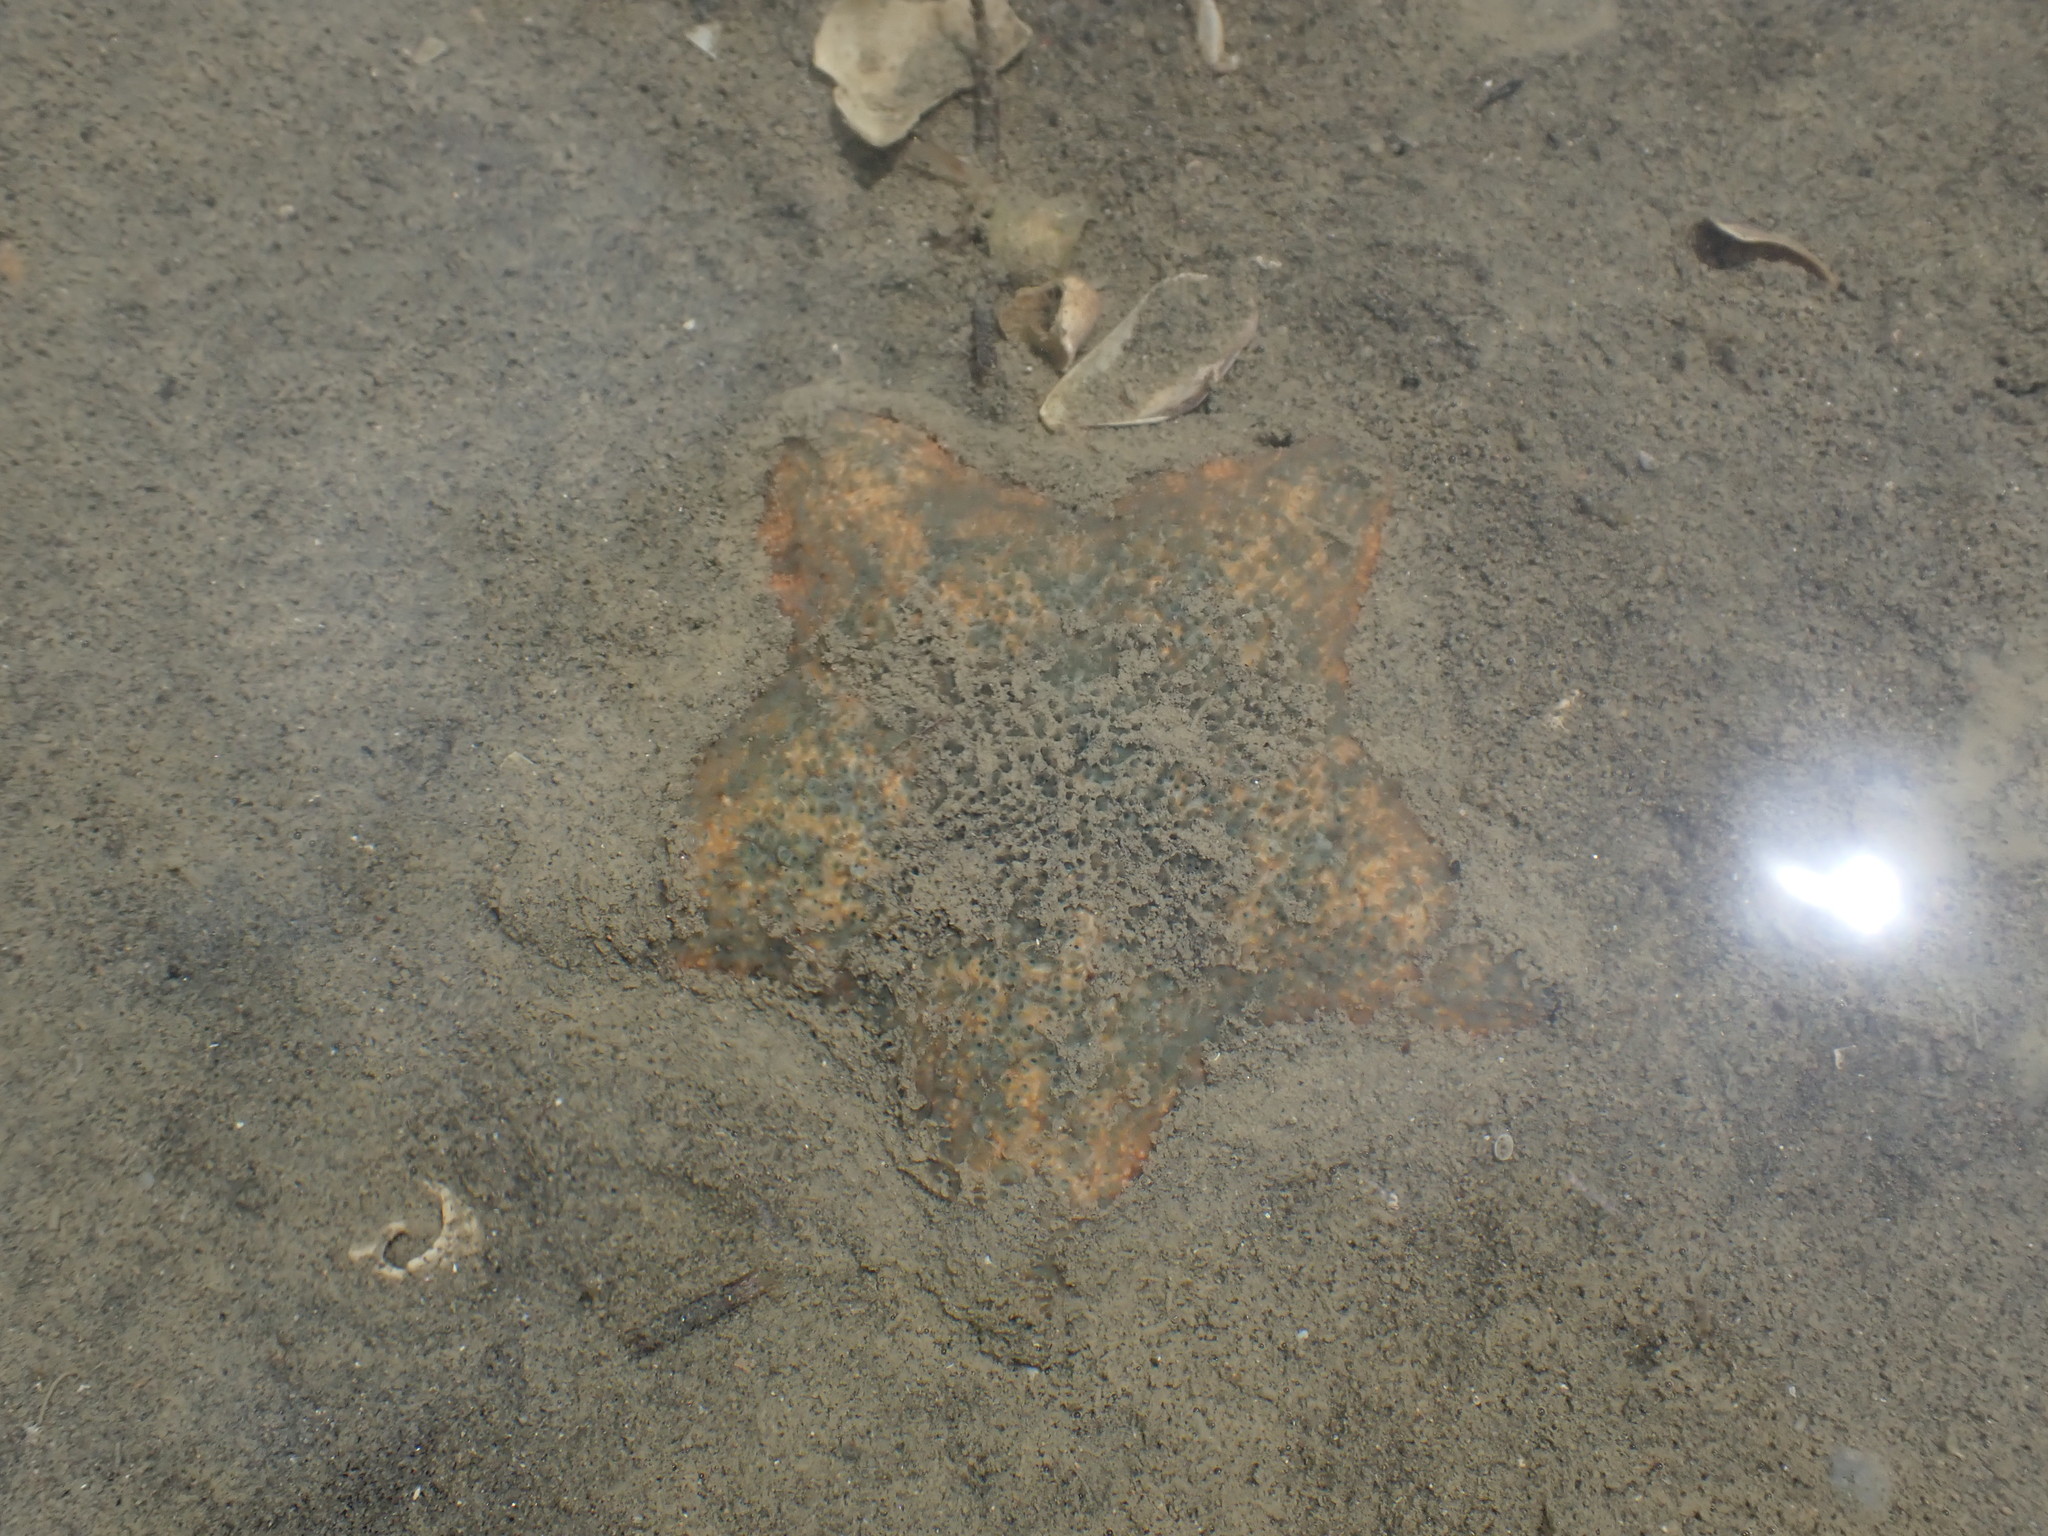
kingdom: Animalia
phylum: Echinodermata
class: Asteroidea
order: Valvatida
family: Asterinidae
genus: Patiriella
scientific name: Patiriella regularis
